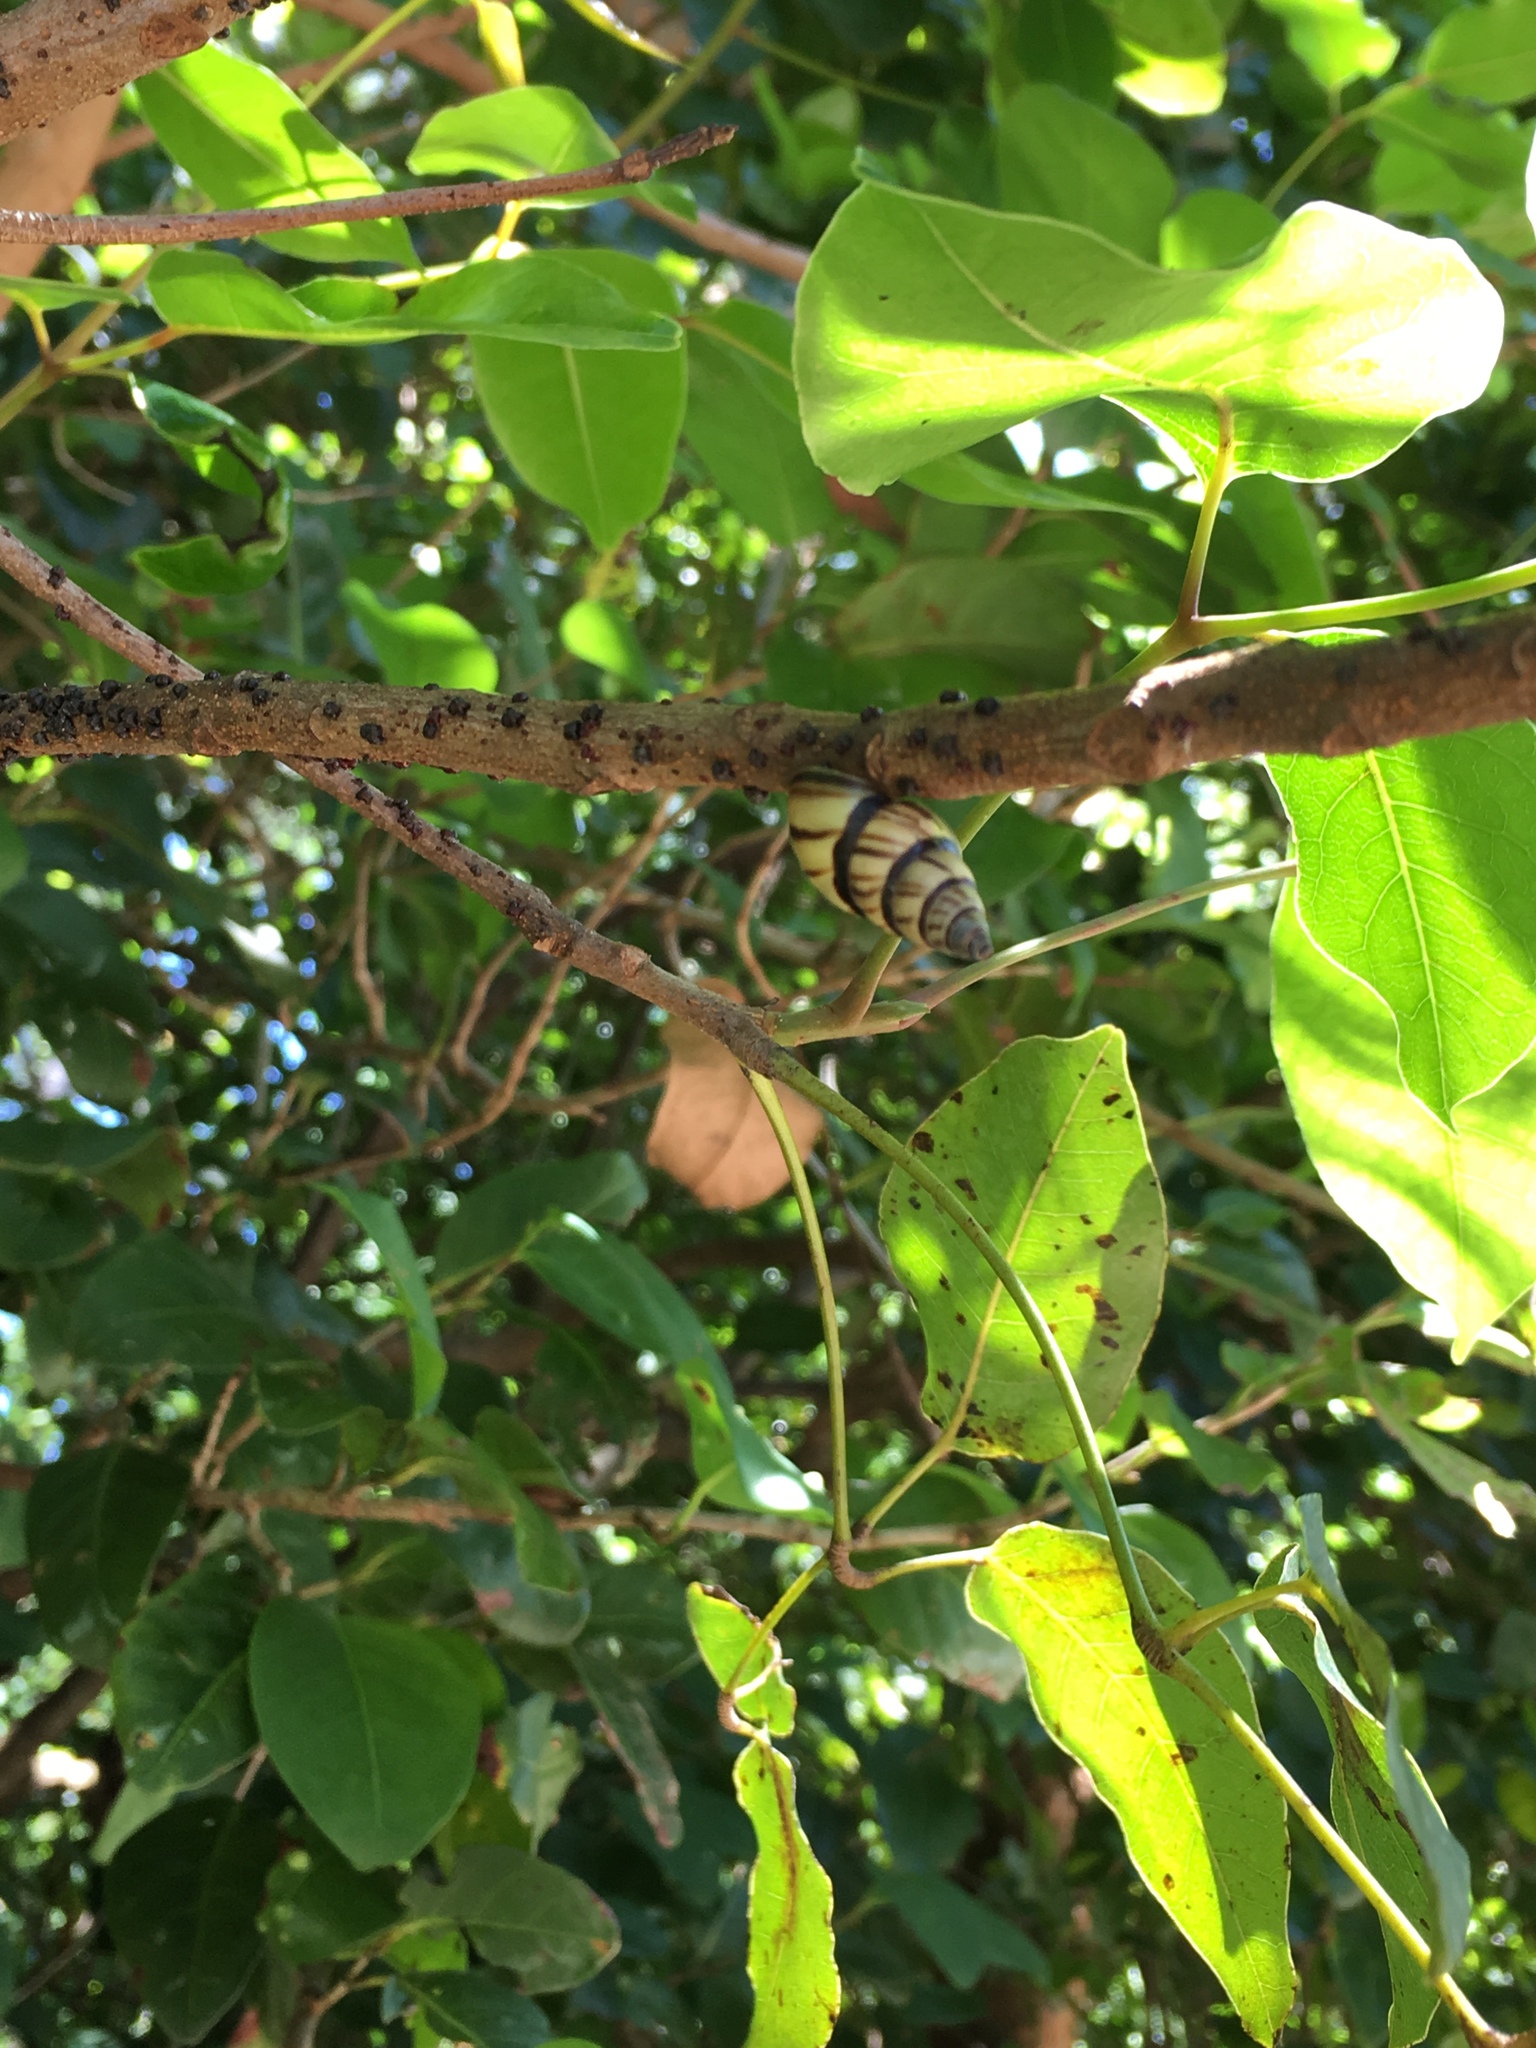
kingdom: Animalia
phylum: Mollusca
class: Gastropoda
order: Stylommatophora
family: Bulimulidae
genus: Drymaeus
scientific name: Drymaeus
